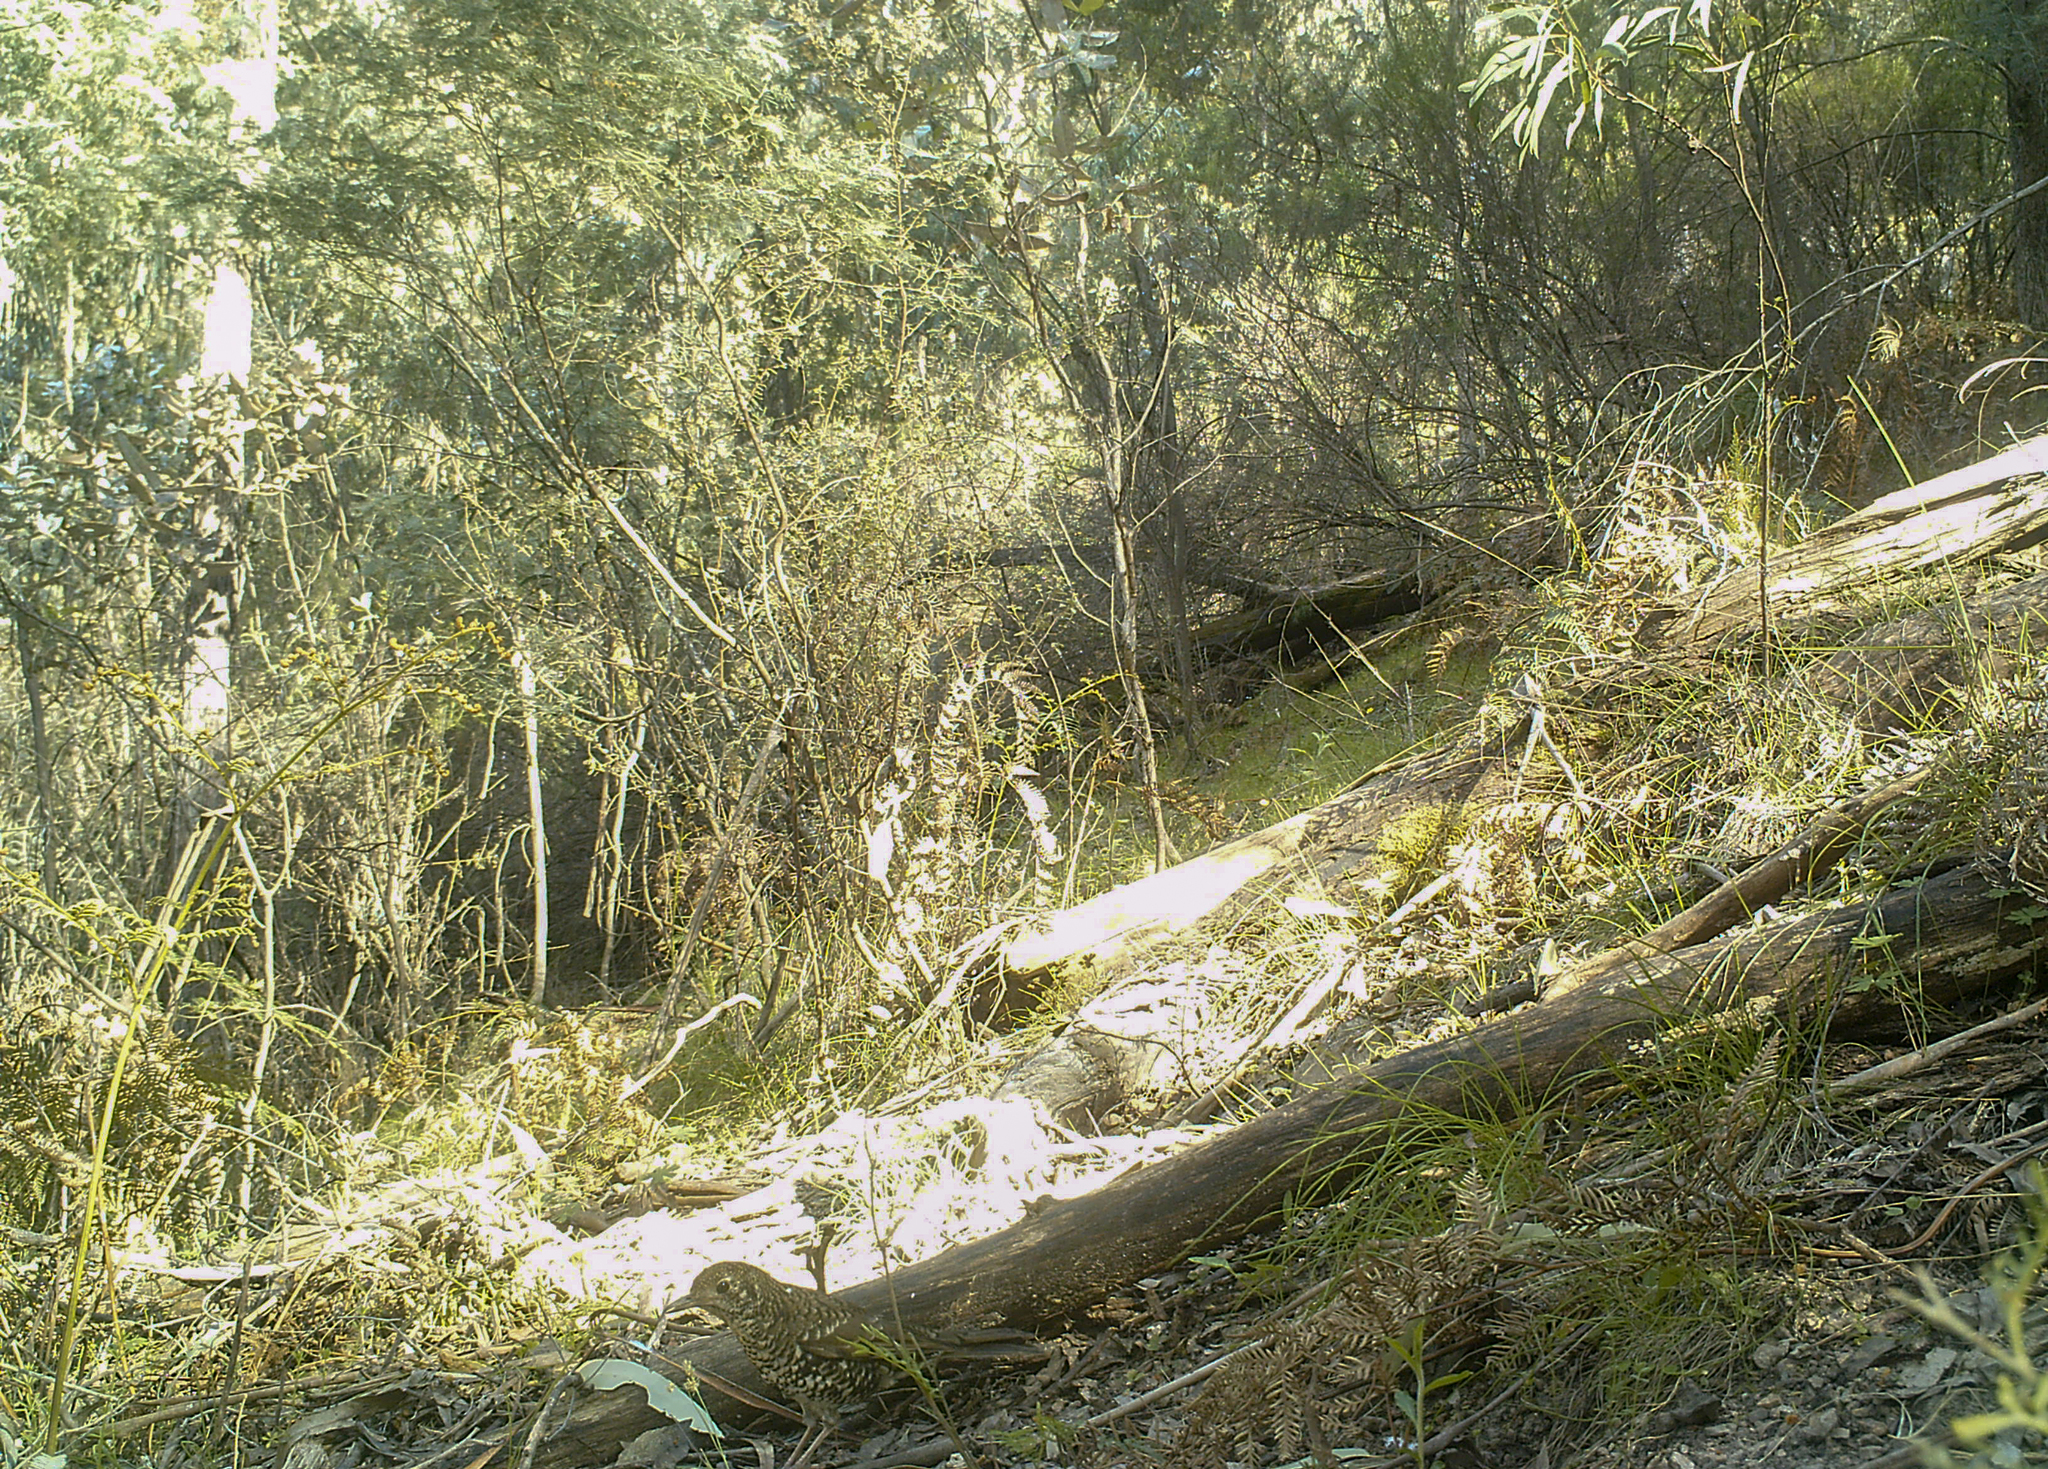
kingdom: Animalia
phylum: Chordata
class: Aves
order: Passeriformes
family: Turdidae
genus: Zoothera
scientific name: Zoothera lunulata
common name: Bassian thrush
